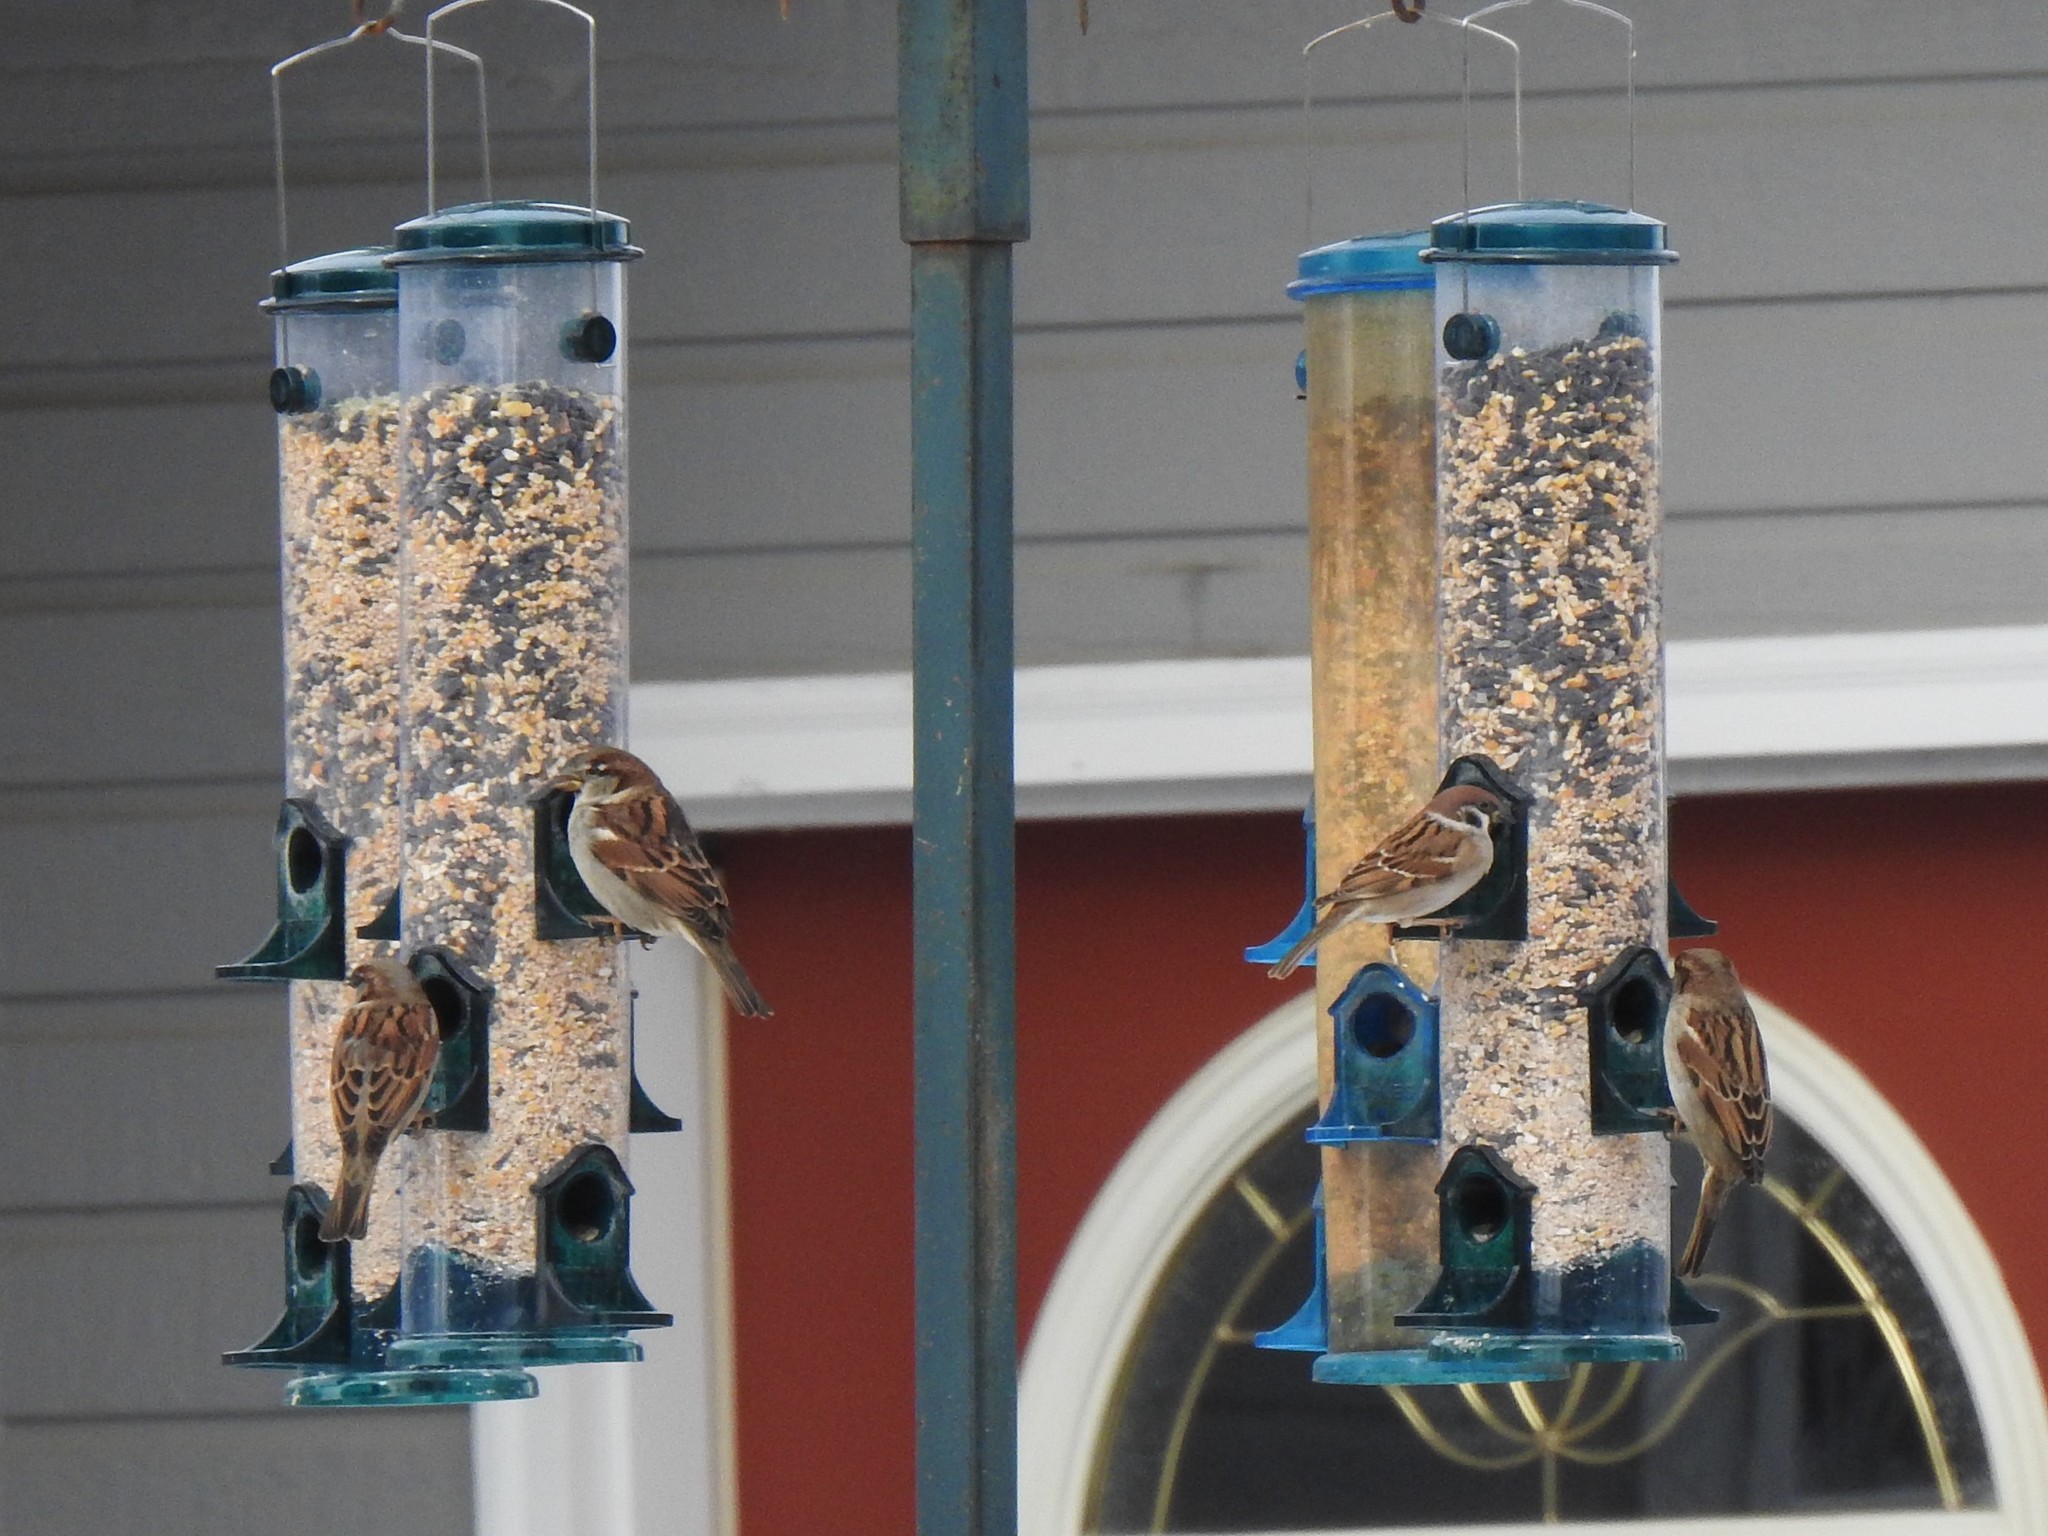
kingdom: Animalia
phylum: Chordata
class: Aves
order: Passeriformes
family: Passeridae
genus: Passer
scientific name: Passer montanus
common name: Eurasian tree sparrow
